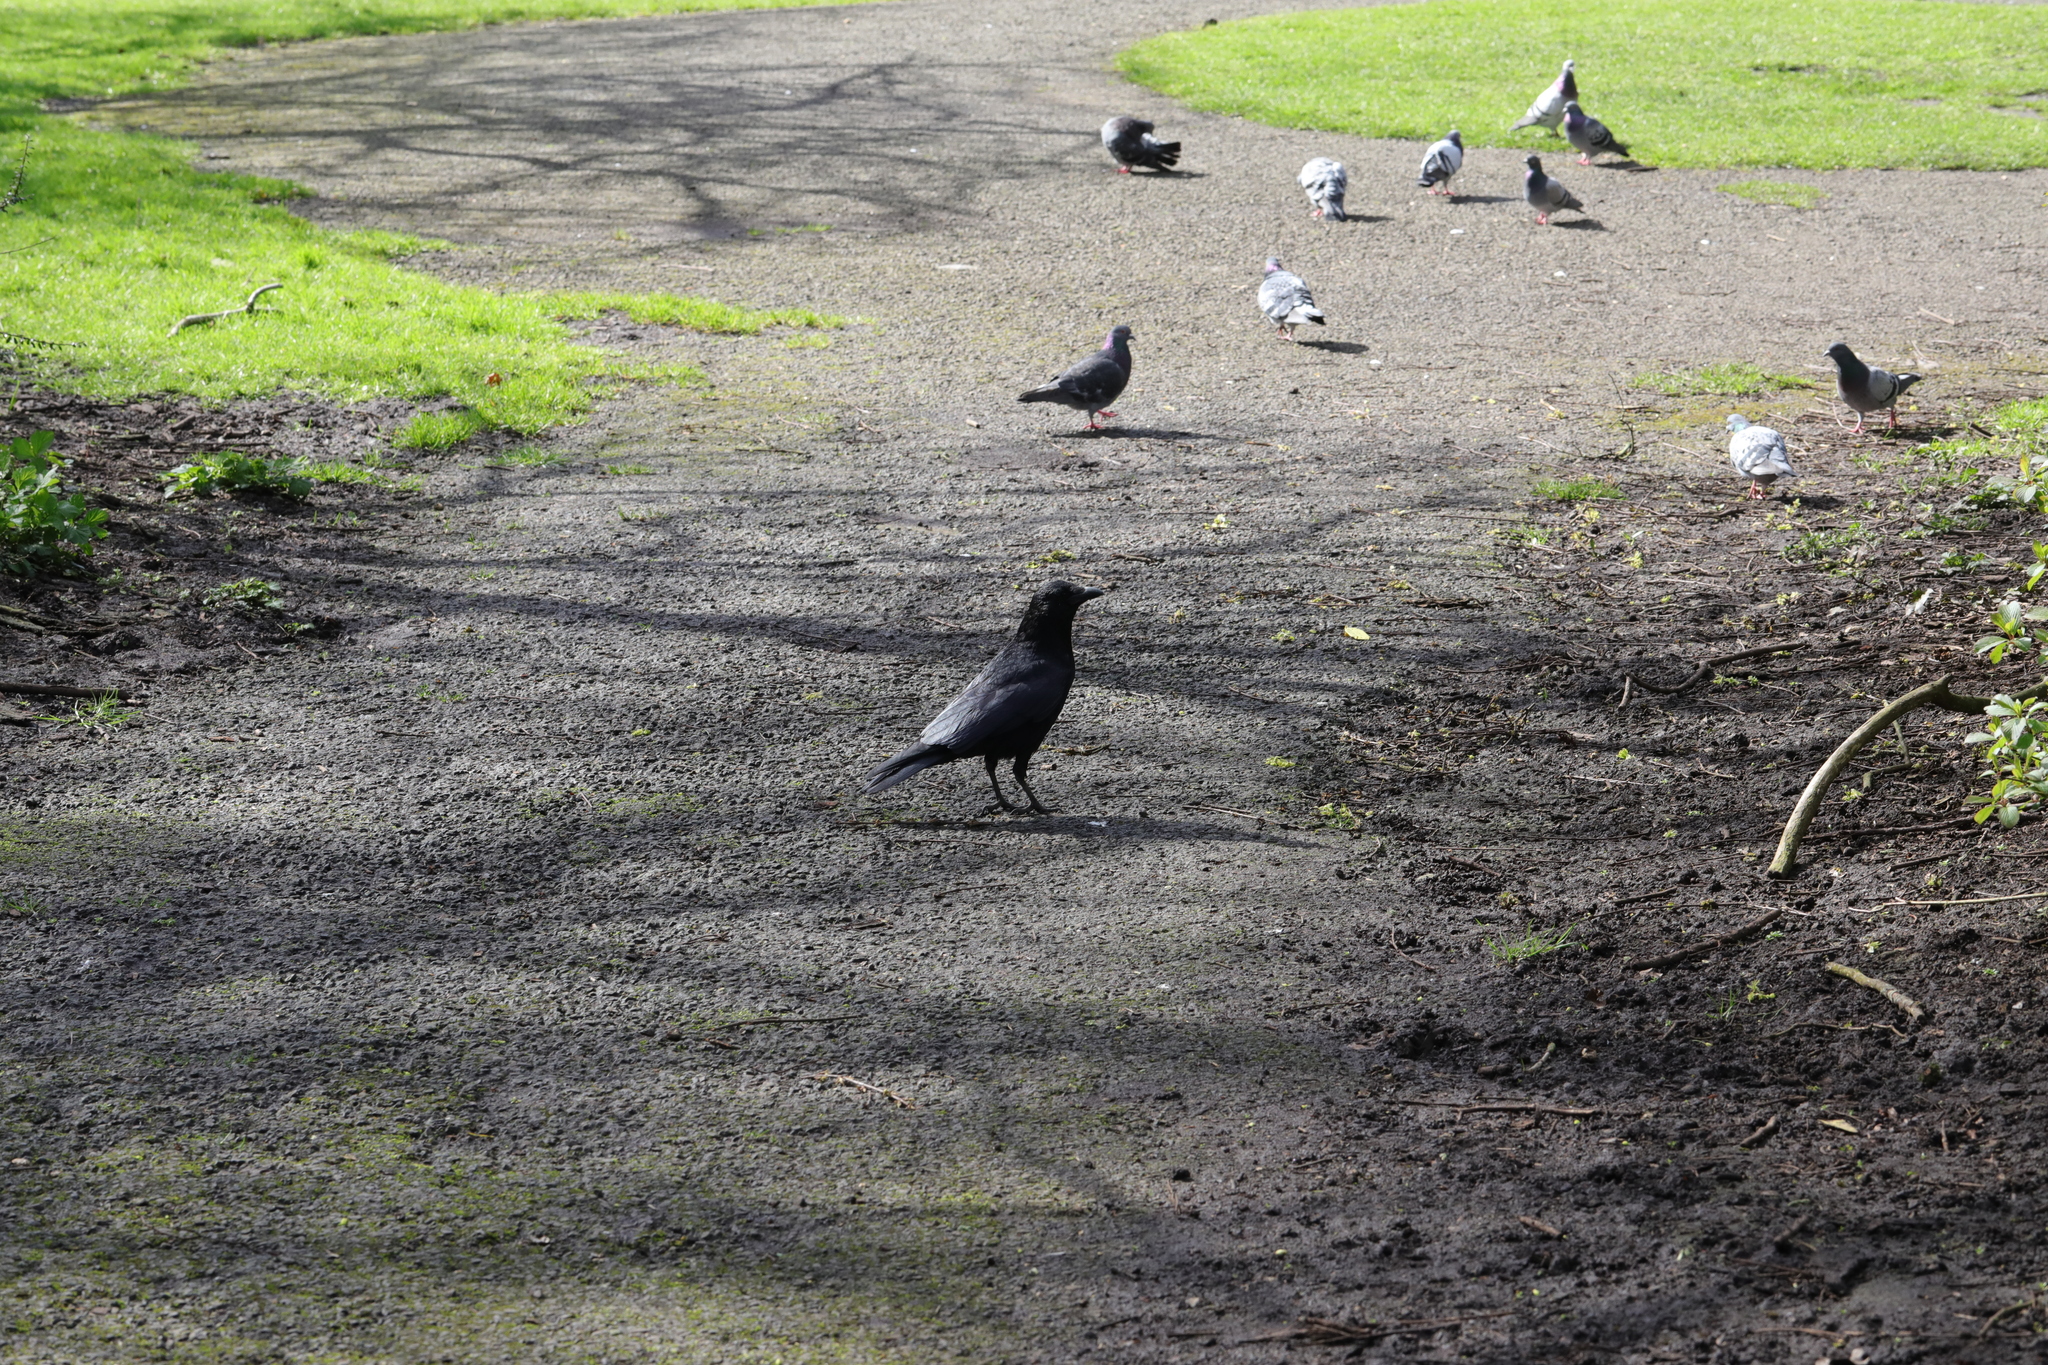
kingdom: Animalia
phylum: Chordata
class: Aves
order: Passeriformes
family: Corvidae
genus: Corvus
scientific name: Corvus corone
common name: Carrion crow
